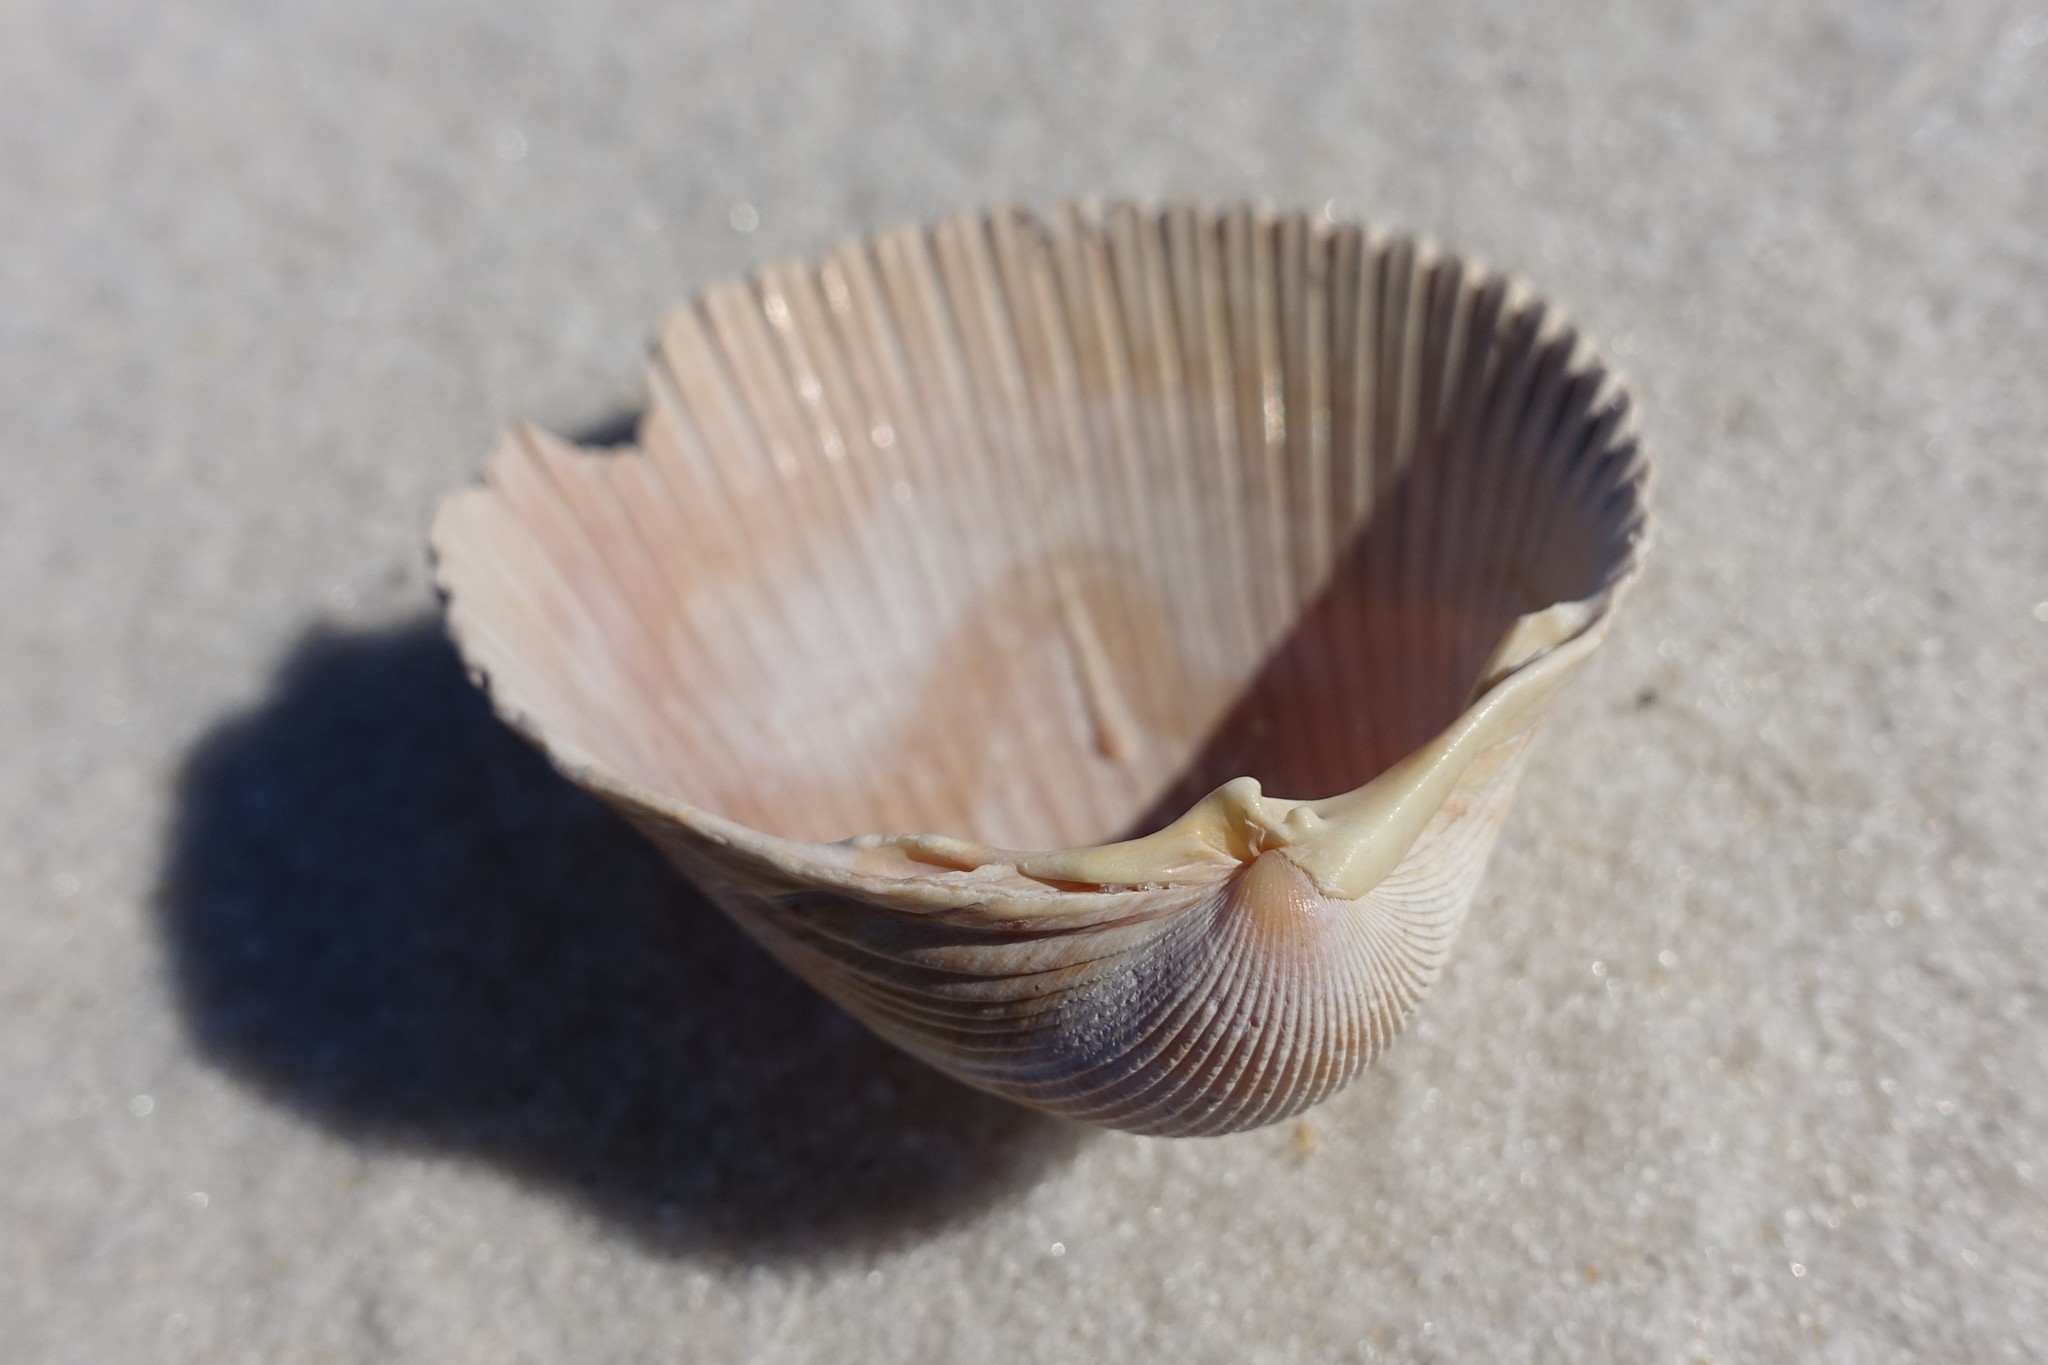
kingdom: Animalia
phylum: Mollusca
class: Bivalvia
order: Cardiida
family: Cardiidae
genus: Dinocardium
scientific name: Dinocardium robustum
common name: Atlantic giant cockle
